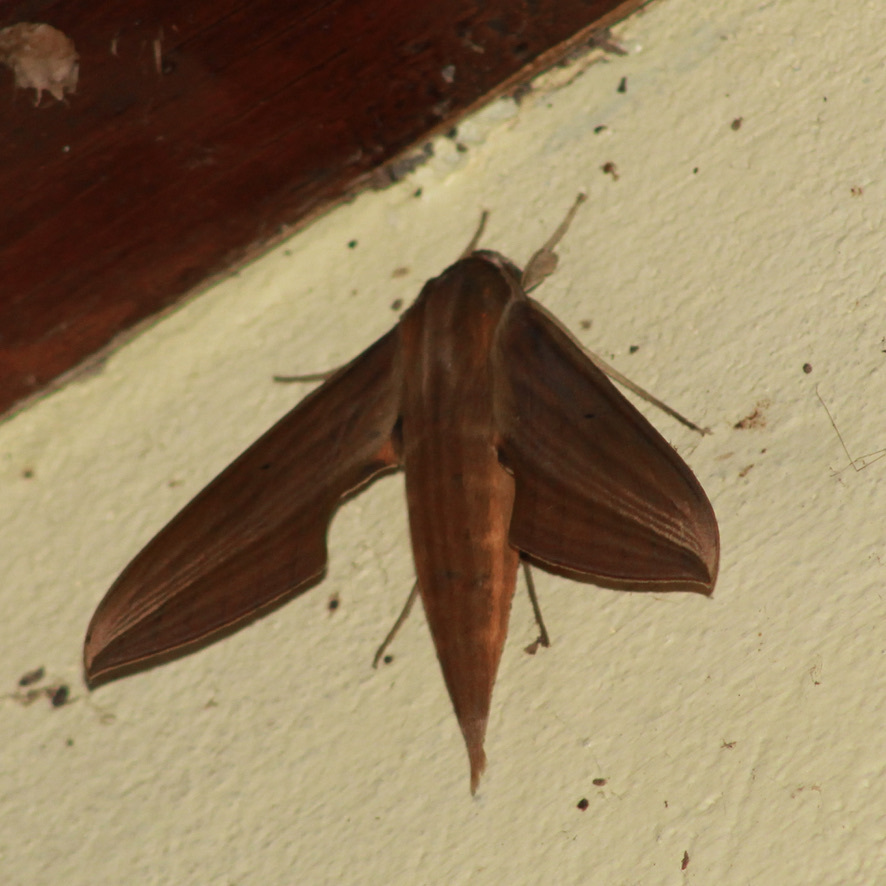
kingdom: Animalia
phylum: Arthropoda
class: Insecta
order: Lepidoptera
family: Sphingidae
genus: Xylophanes
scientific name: Xylophanes neoptolemus
